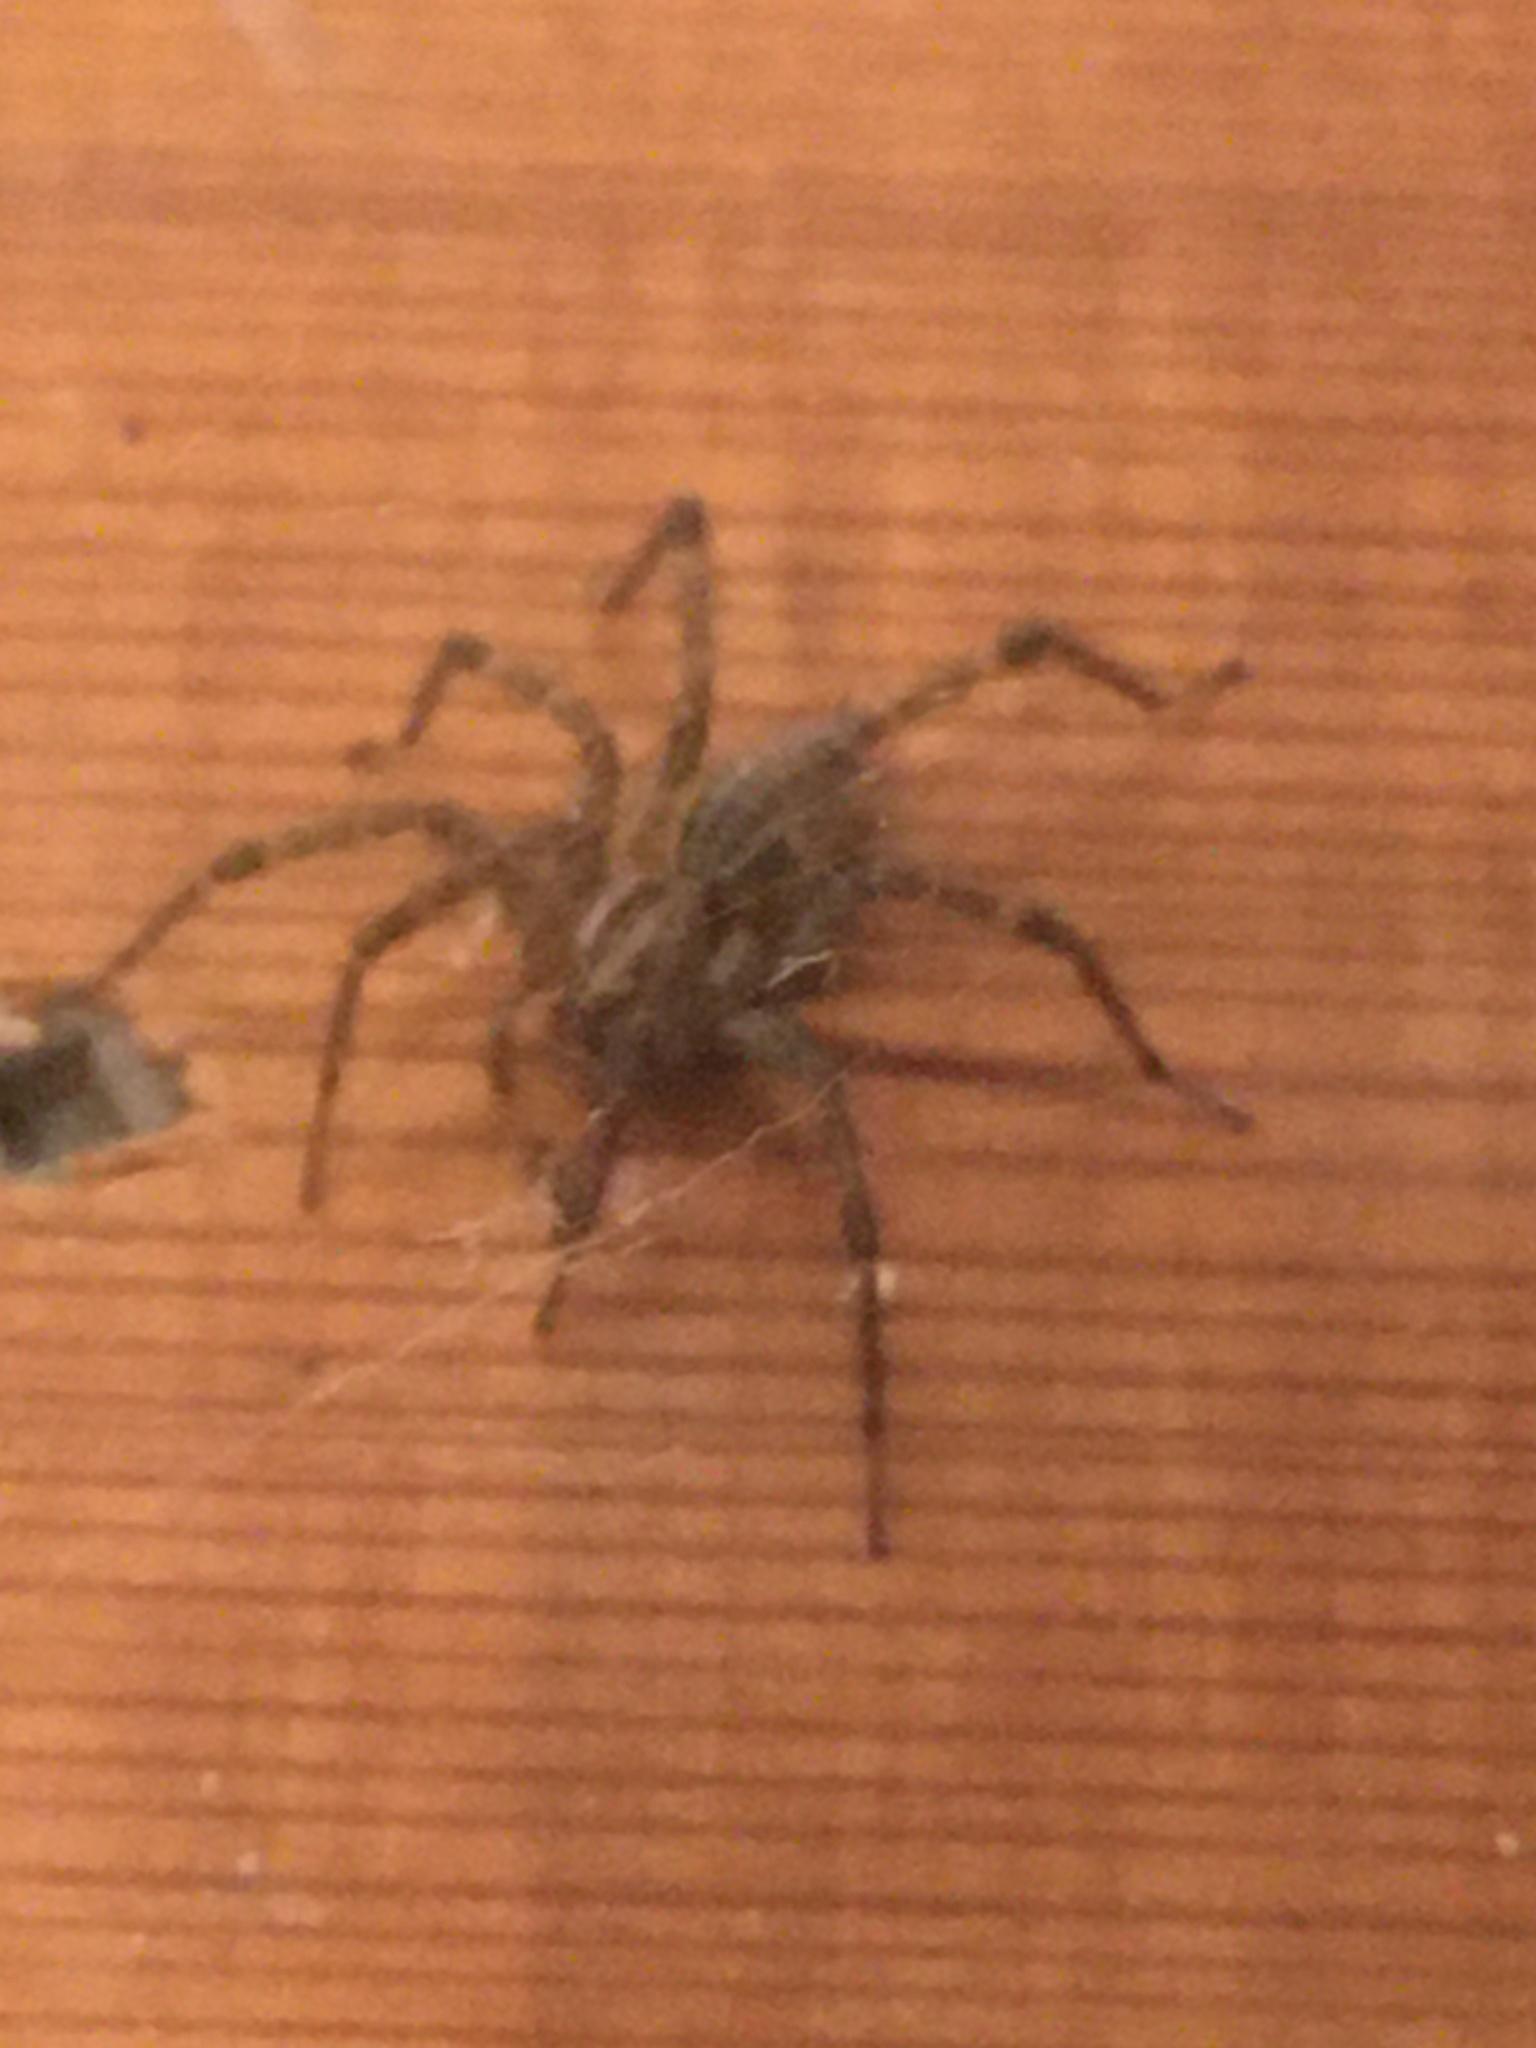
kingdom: Animalia
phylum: Arthropoda
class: Arachnida
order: Araneae
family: Agelenidae
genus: Agelenopsis
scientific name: Agelenopsis
